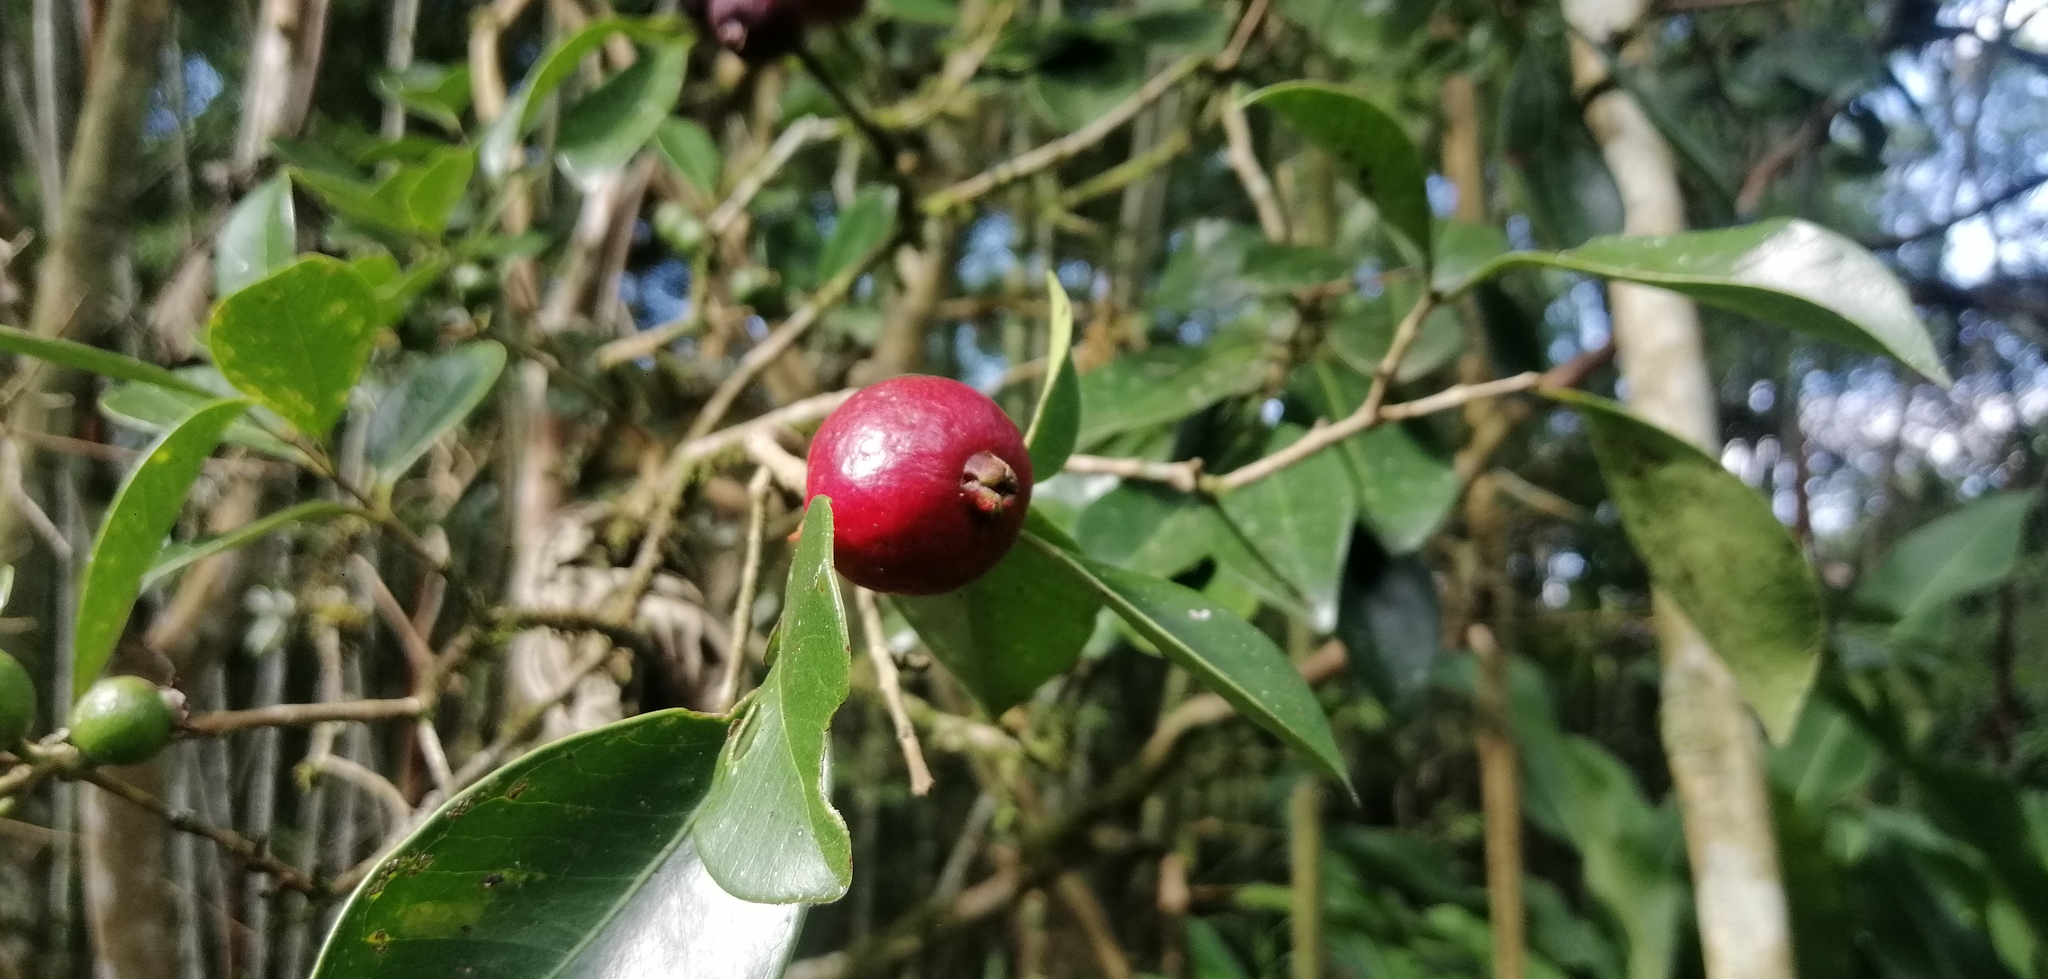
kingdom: Plantae
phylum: Tracheophyta
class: Magnoliopsida
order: Myrtales
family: Myrtaceae
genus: Psidium
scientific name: Psidium cattleianum
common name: Strawberry guava
